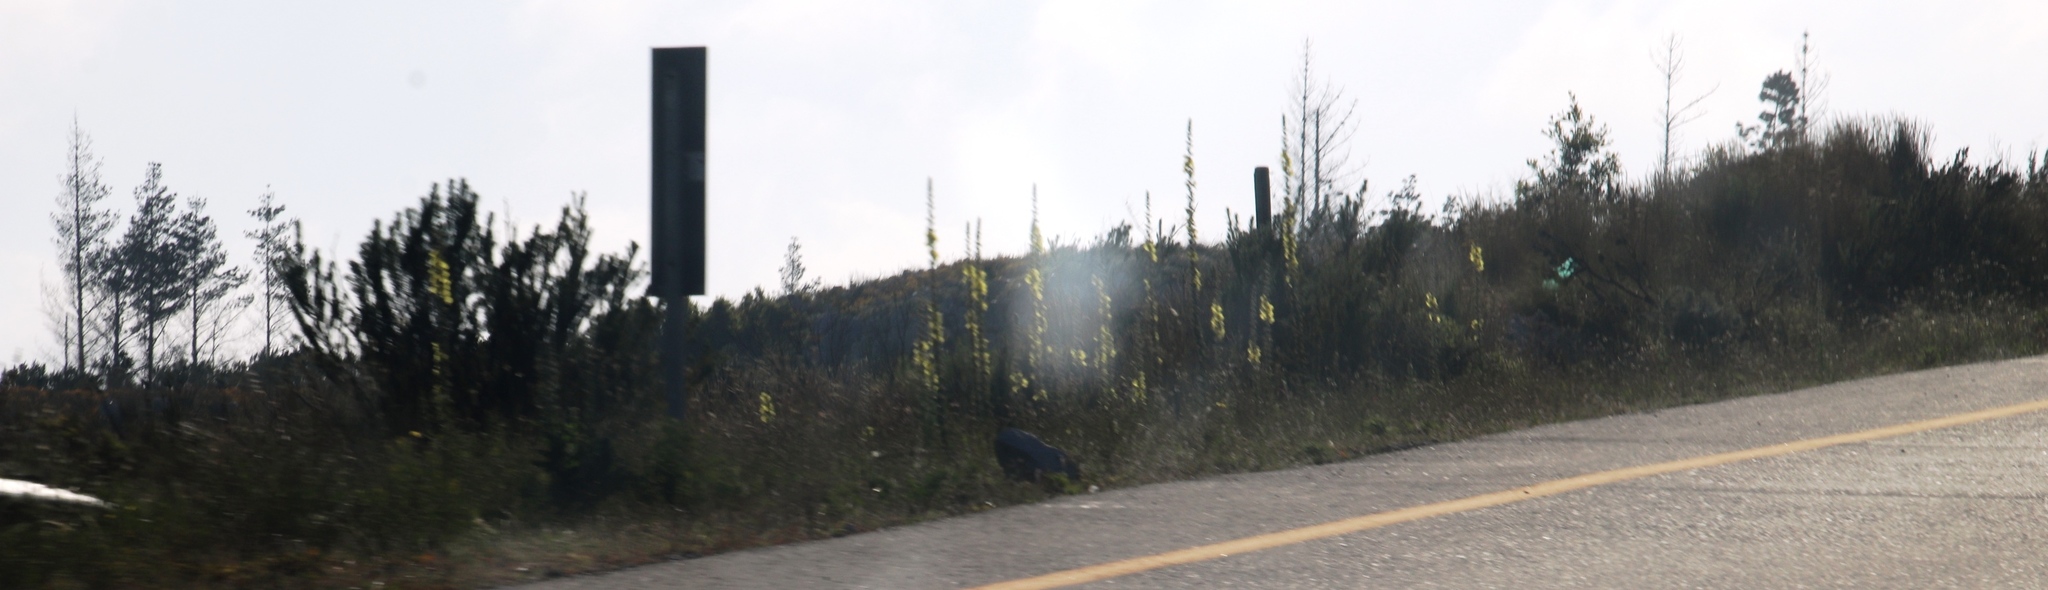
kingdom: Plantae
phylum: Tracheophyta
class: Magnoliopsida
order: Lamiales
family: Scrophulariaceae
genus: Verbascum
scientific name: Verbascum virgatum
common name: Twiggy mullein
